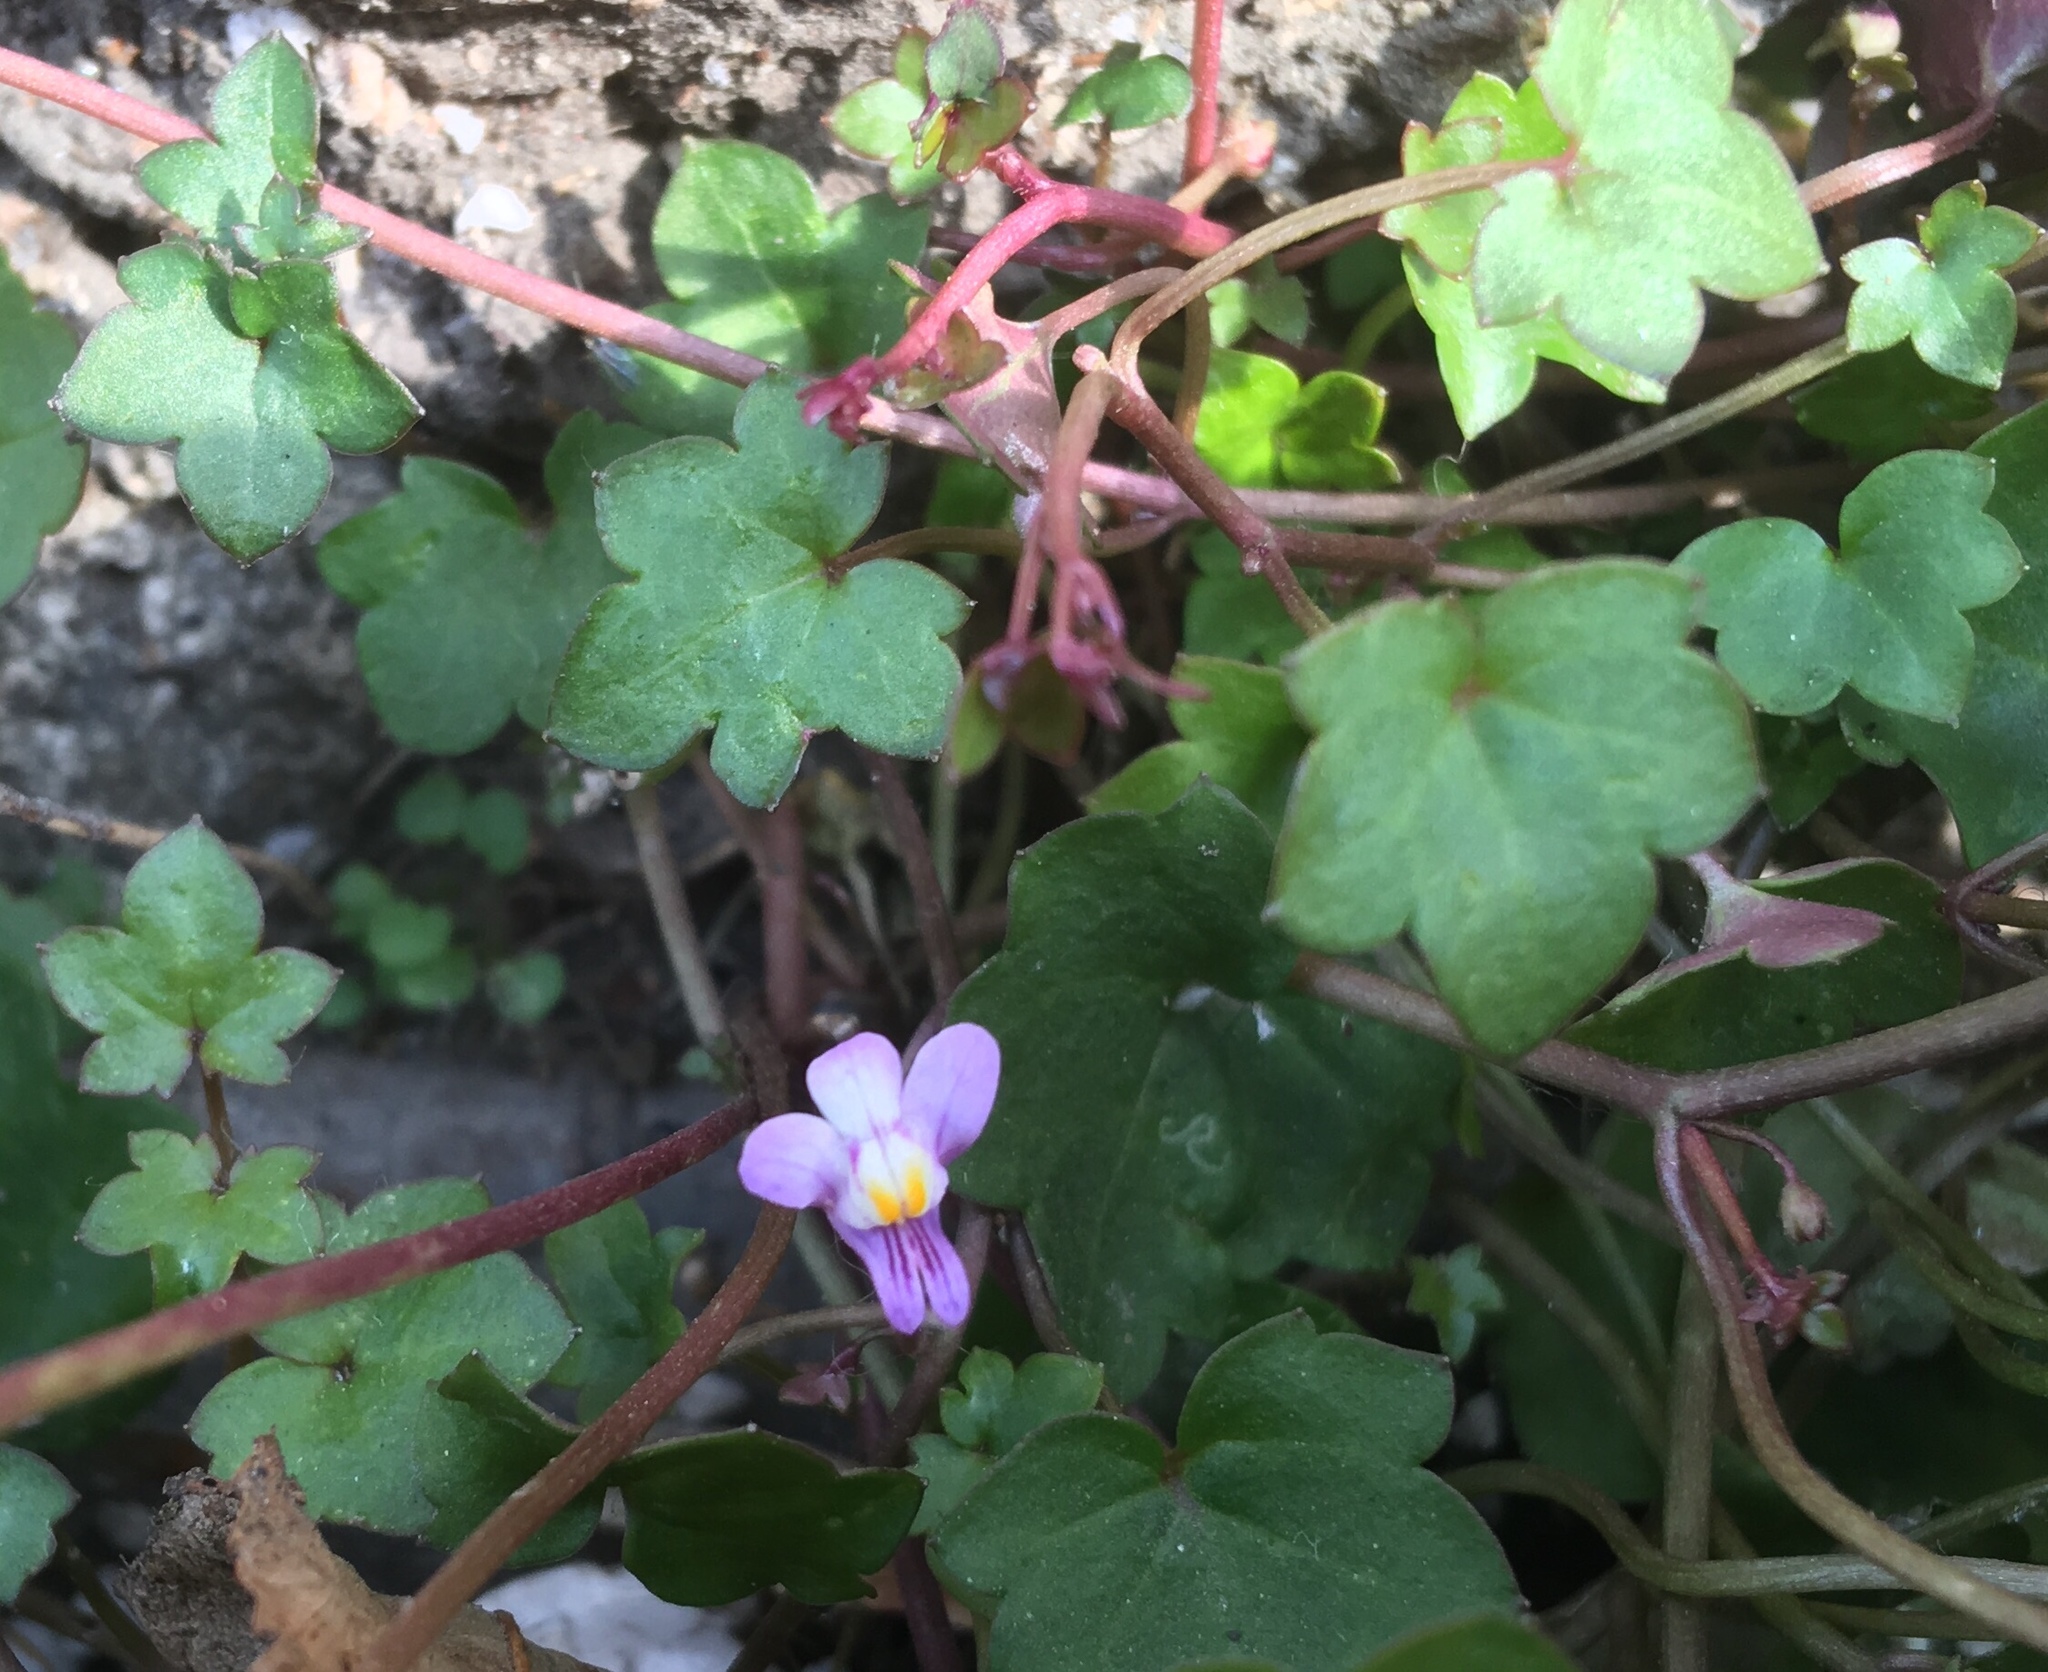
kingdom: Plantae
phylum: Tracheophyta
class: Magnoliopsida
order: Lamiales
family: Plantaginaceae
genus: Cymbalaria
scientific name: Cymbalaria muralis
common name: Ivy-leaved toadflax
